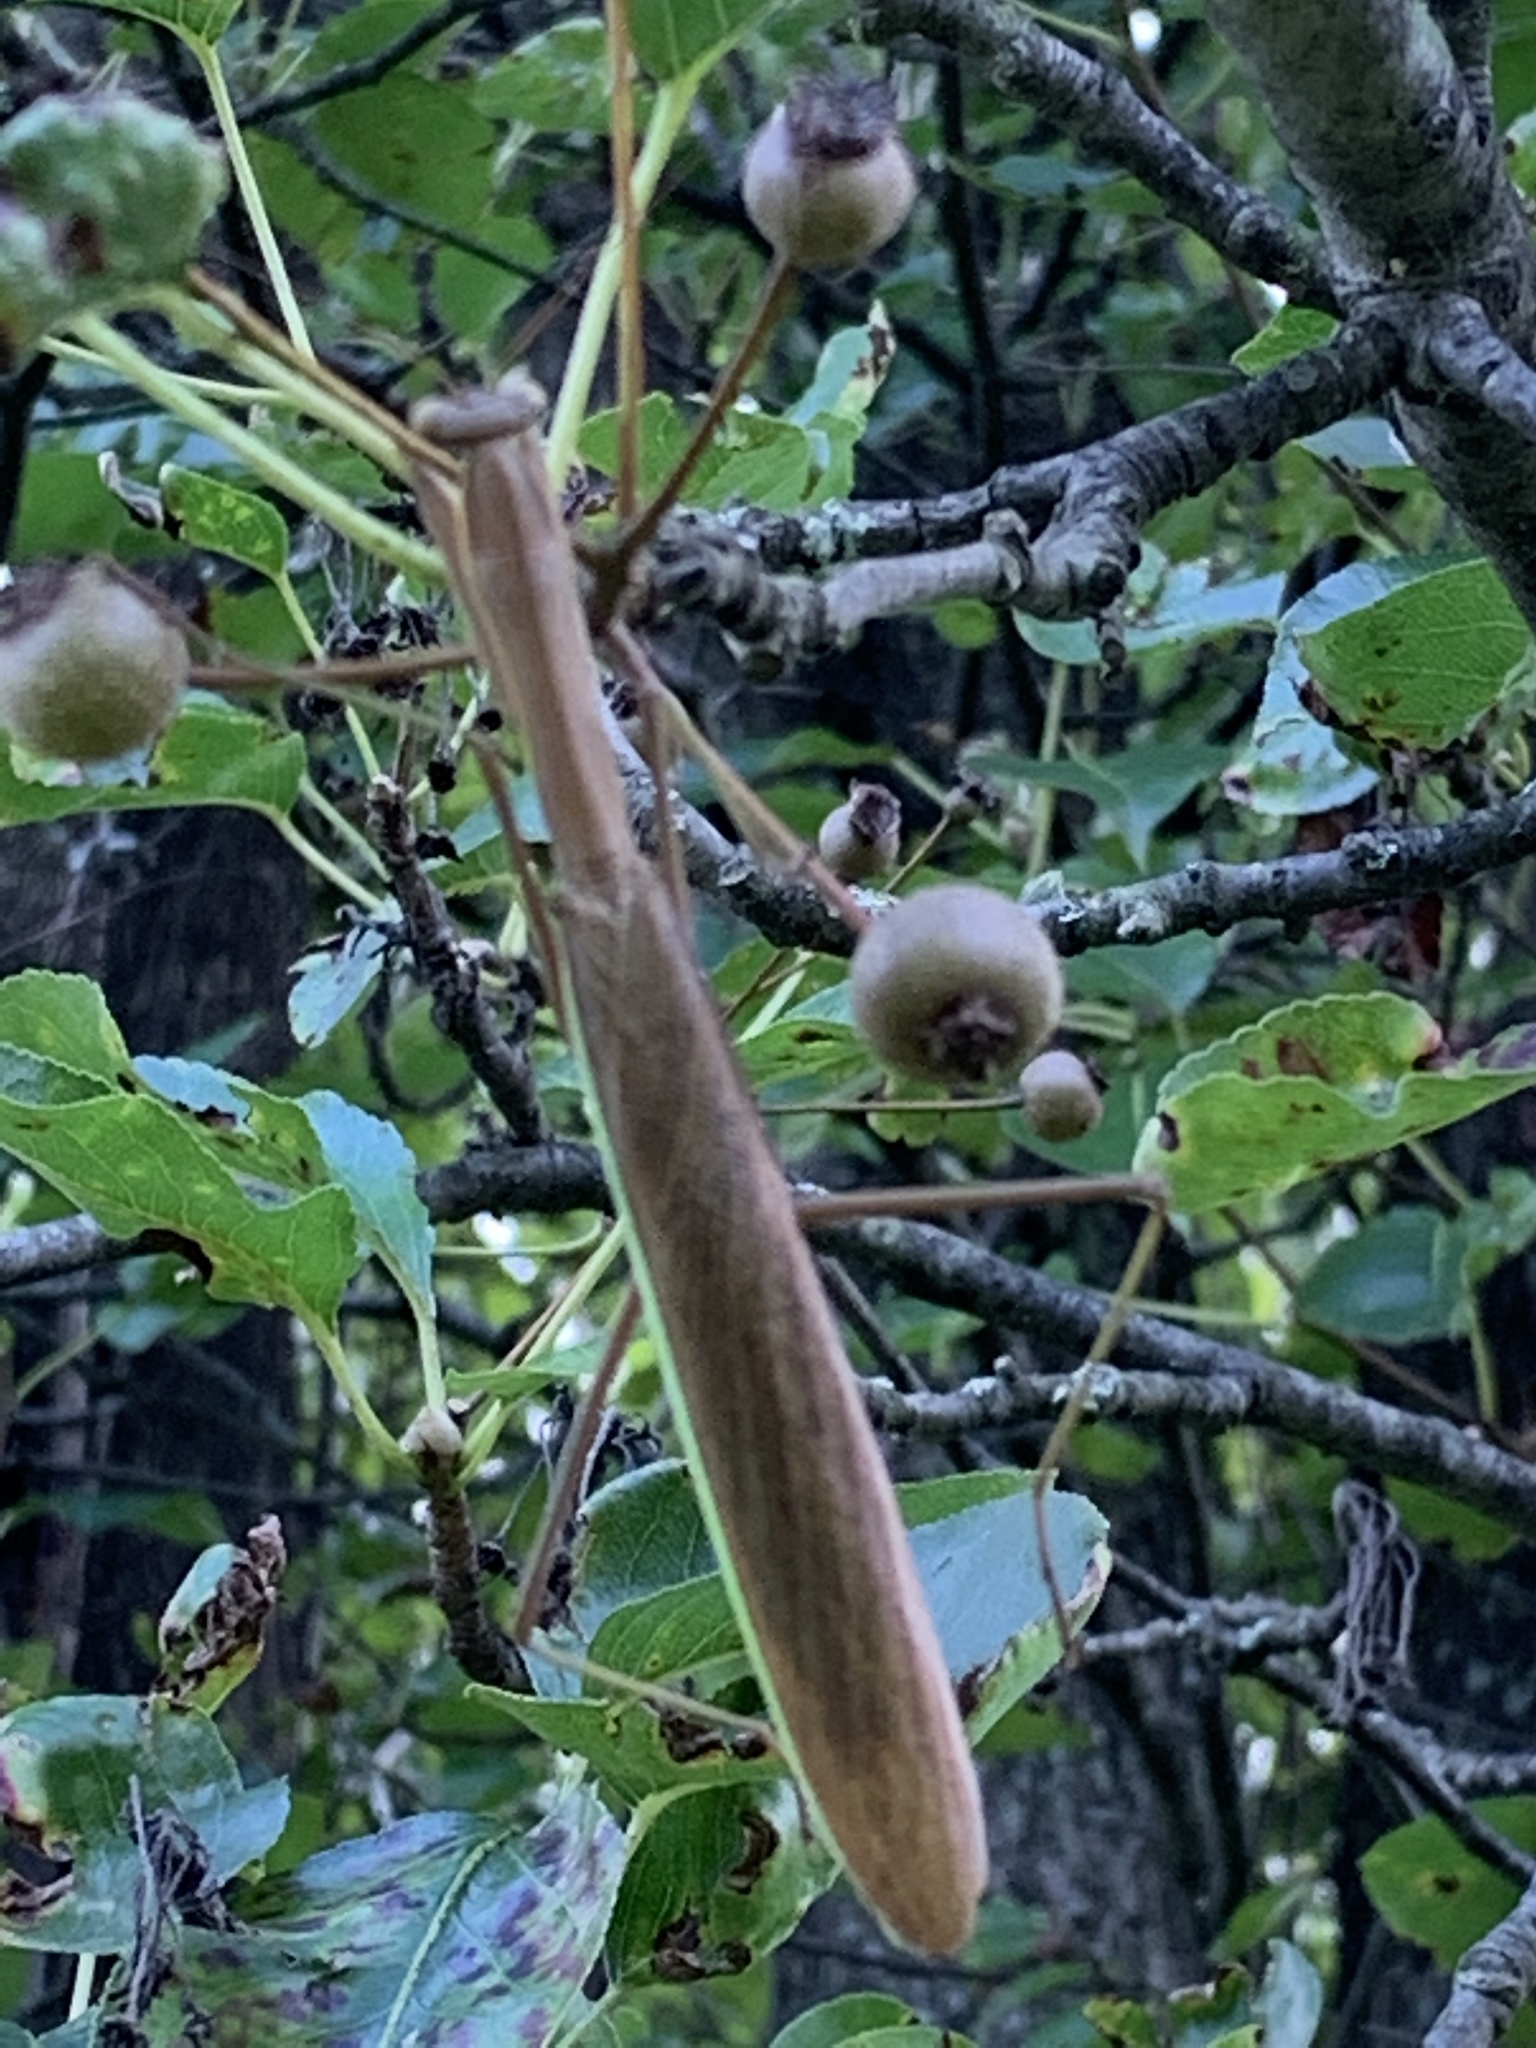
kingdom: Animalia
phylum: Arthropoda
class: Insecta
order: Mantodea
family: Mantidae
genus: Tenodera
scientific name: Tenodera sinensis
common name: Chinese mantis
